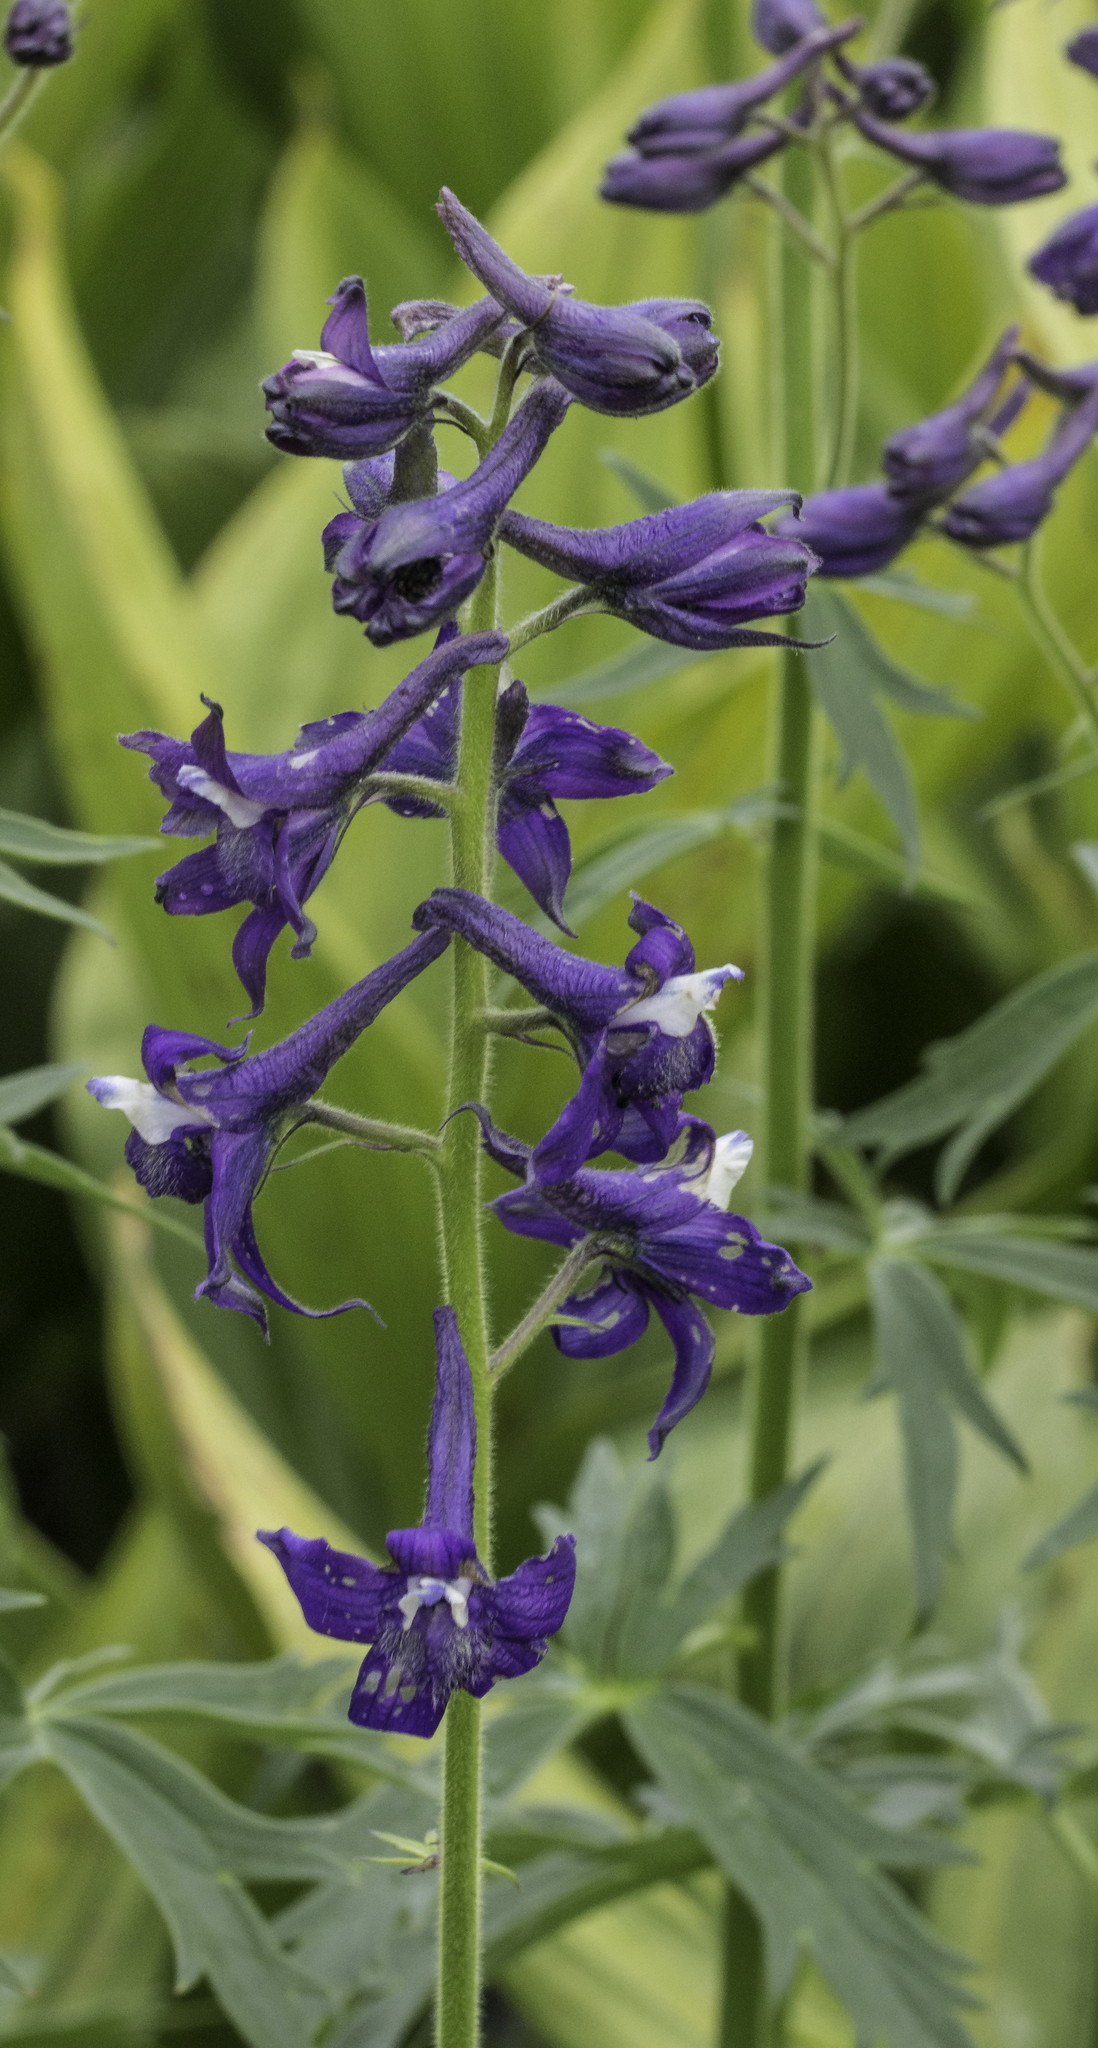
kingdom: Plantae
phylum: Tracheophyta
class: Magnoliopsida
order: Ranunculales
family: Ranunculaceae
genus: Delphinium
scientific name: Delphinium barbeyi
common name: Subalpine larkspur
